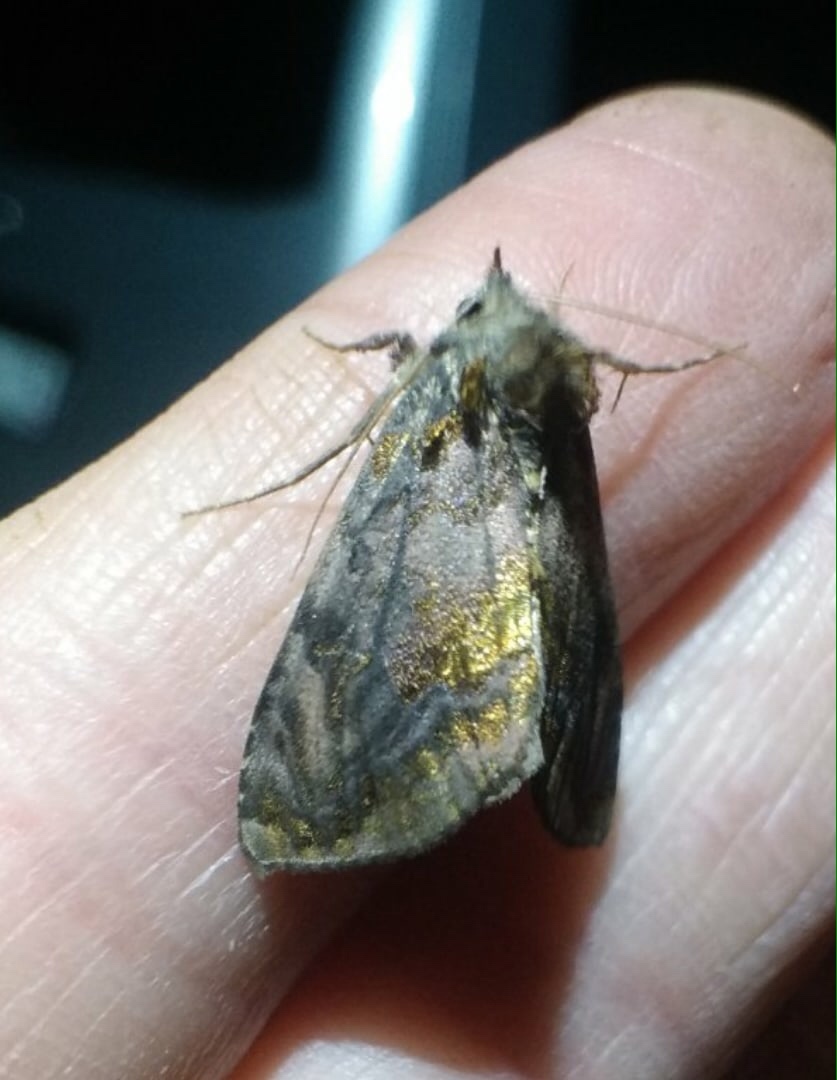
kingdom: Animalia
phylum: Arthropoda
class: Insecta
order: Lepidoptera
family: Noctuidae
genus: Lamprotes
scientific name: Lamprotes caureum
